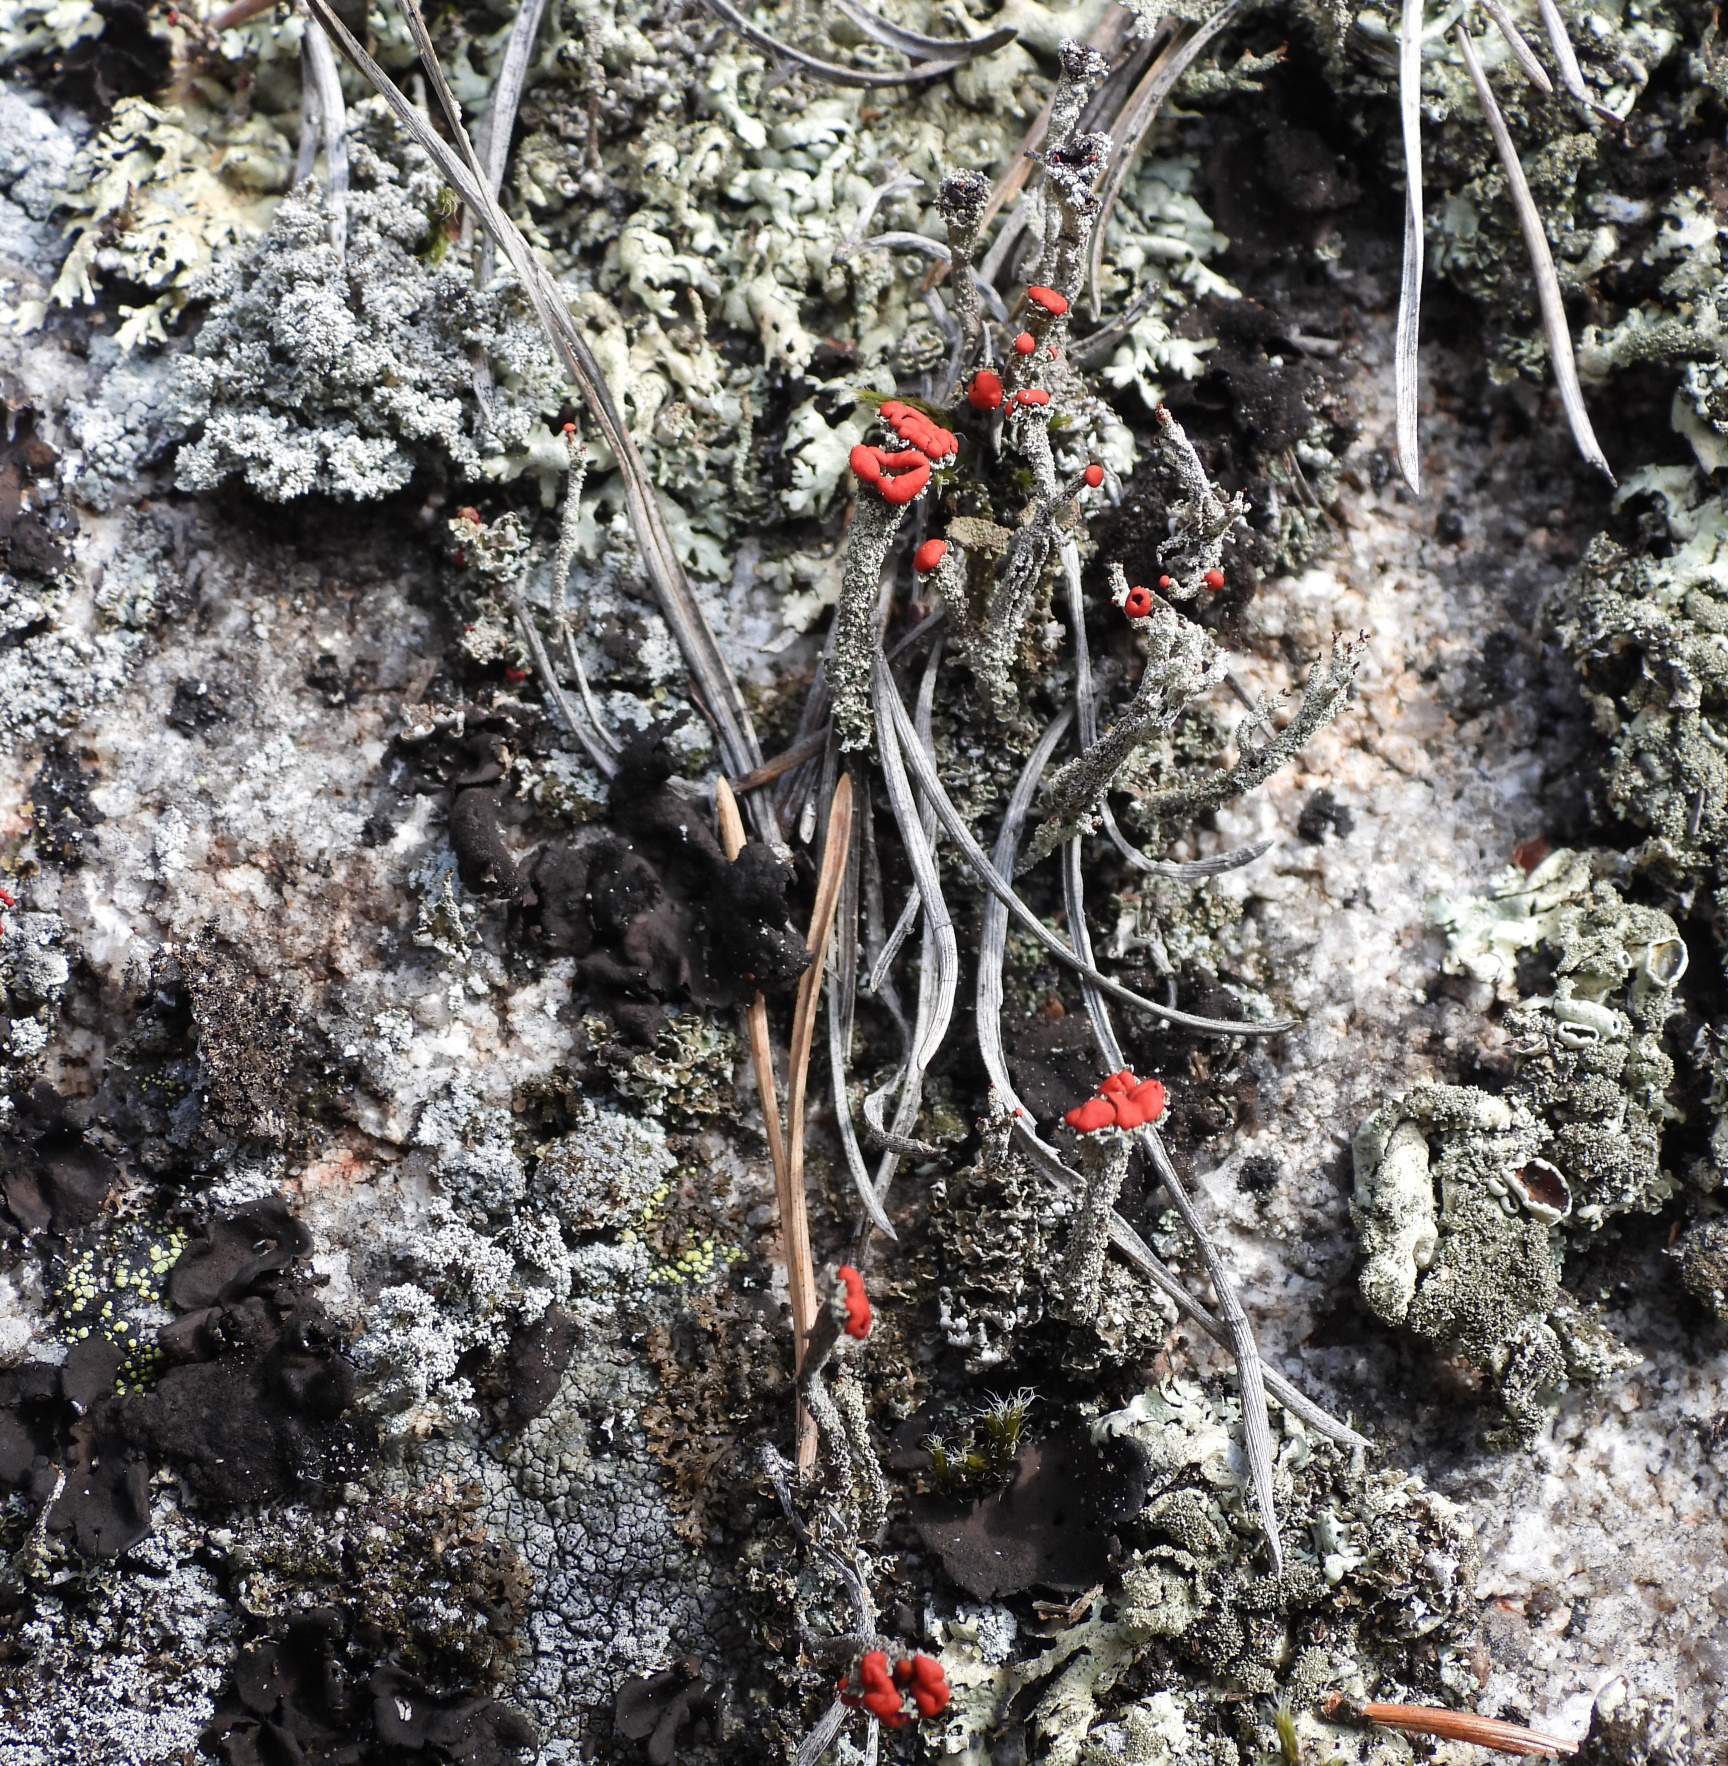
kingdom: Fungi
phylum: Ascomycota
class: Lecanoromycetes
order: Lecanorales
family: Cladoniaceae
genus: Cladonia
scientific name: Cladonia floerkeana
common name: Gritty british soldiers lichen
